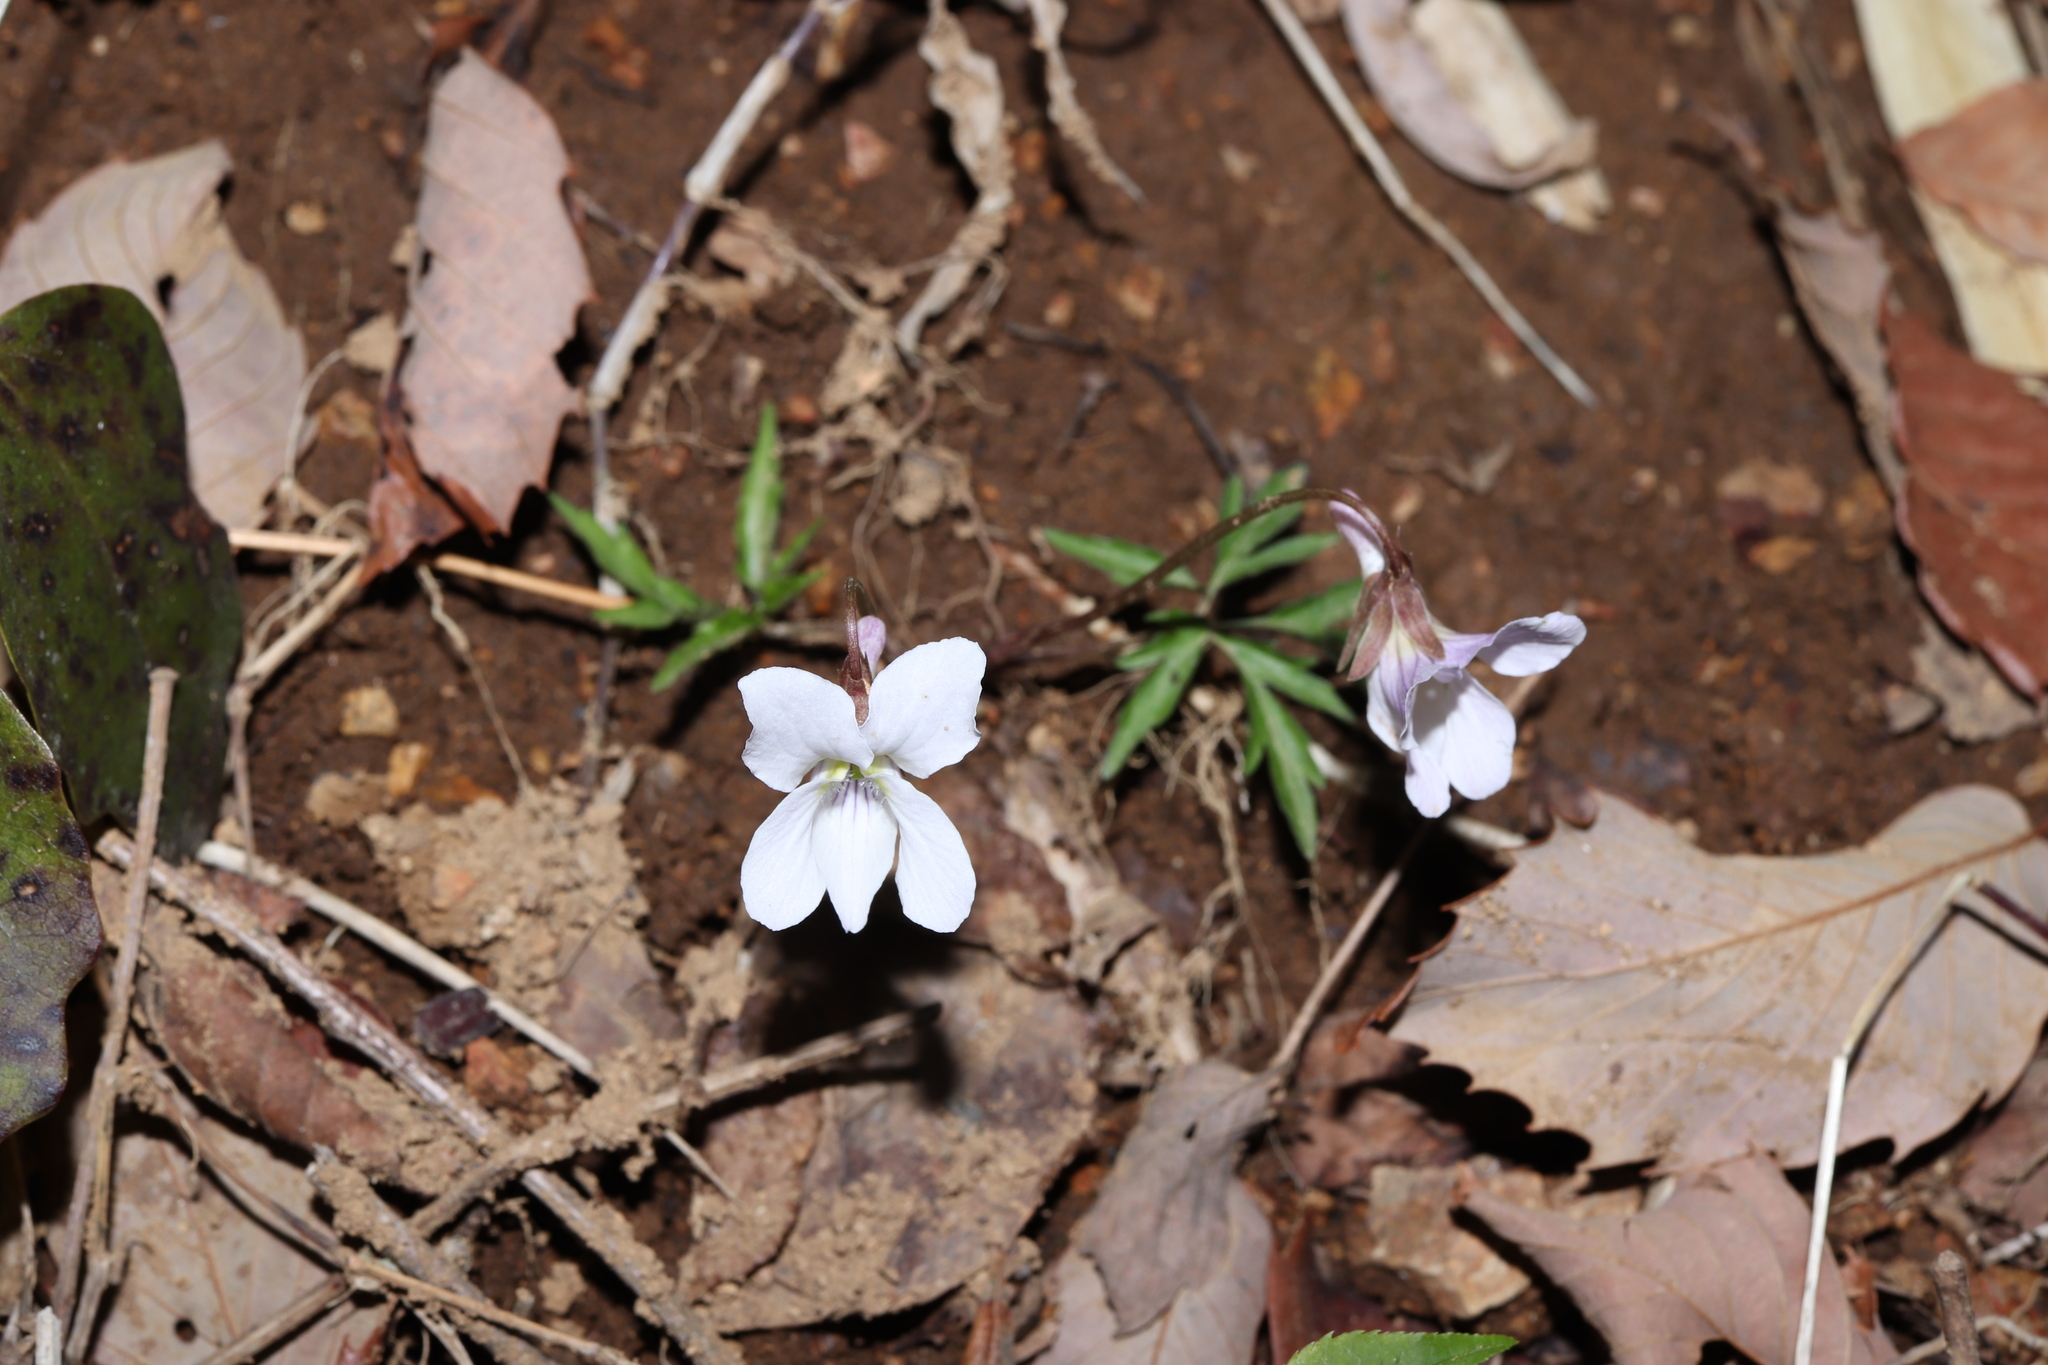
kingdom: Plantae
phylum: Tracheophyta
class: Magnoliopsida
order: Malpighiales
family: Violaceae
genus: Viola
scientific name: Viola albida
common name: Korean violet
